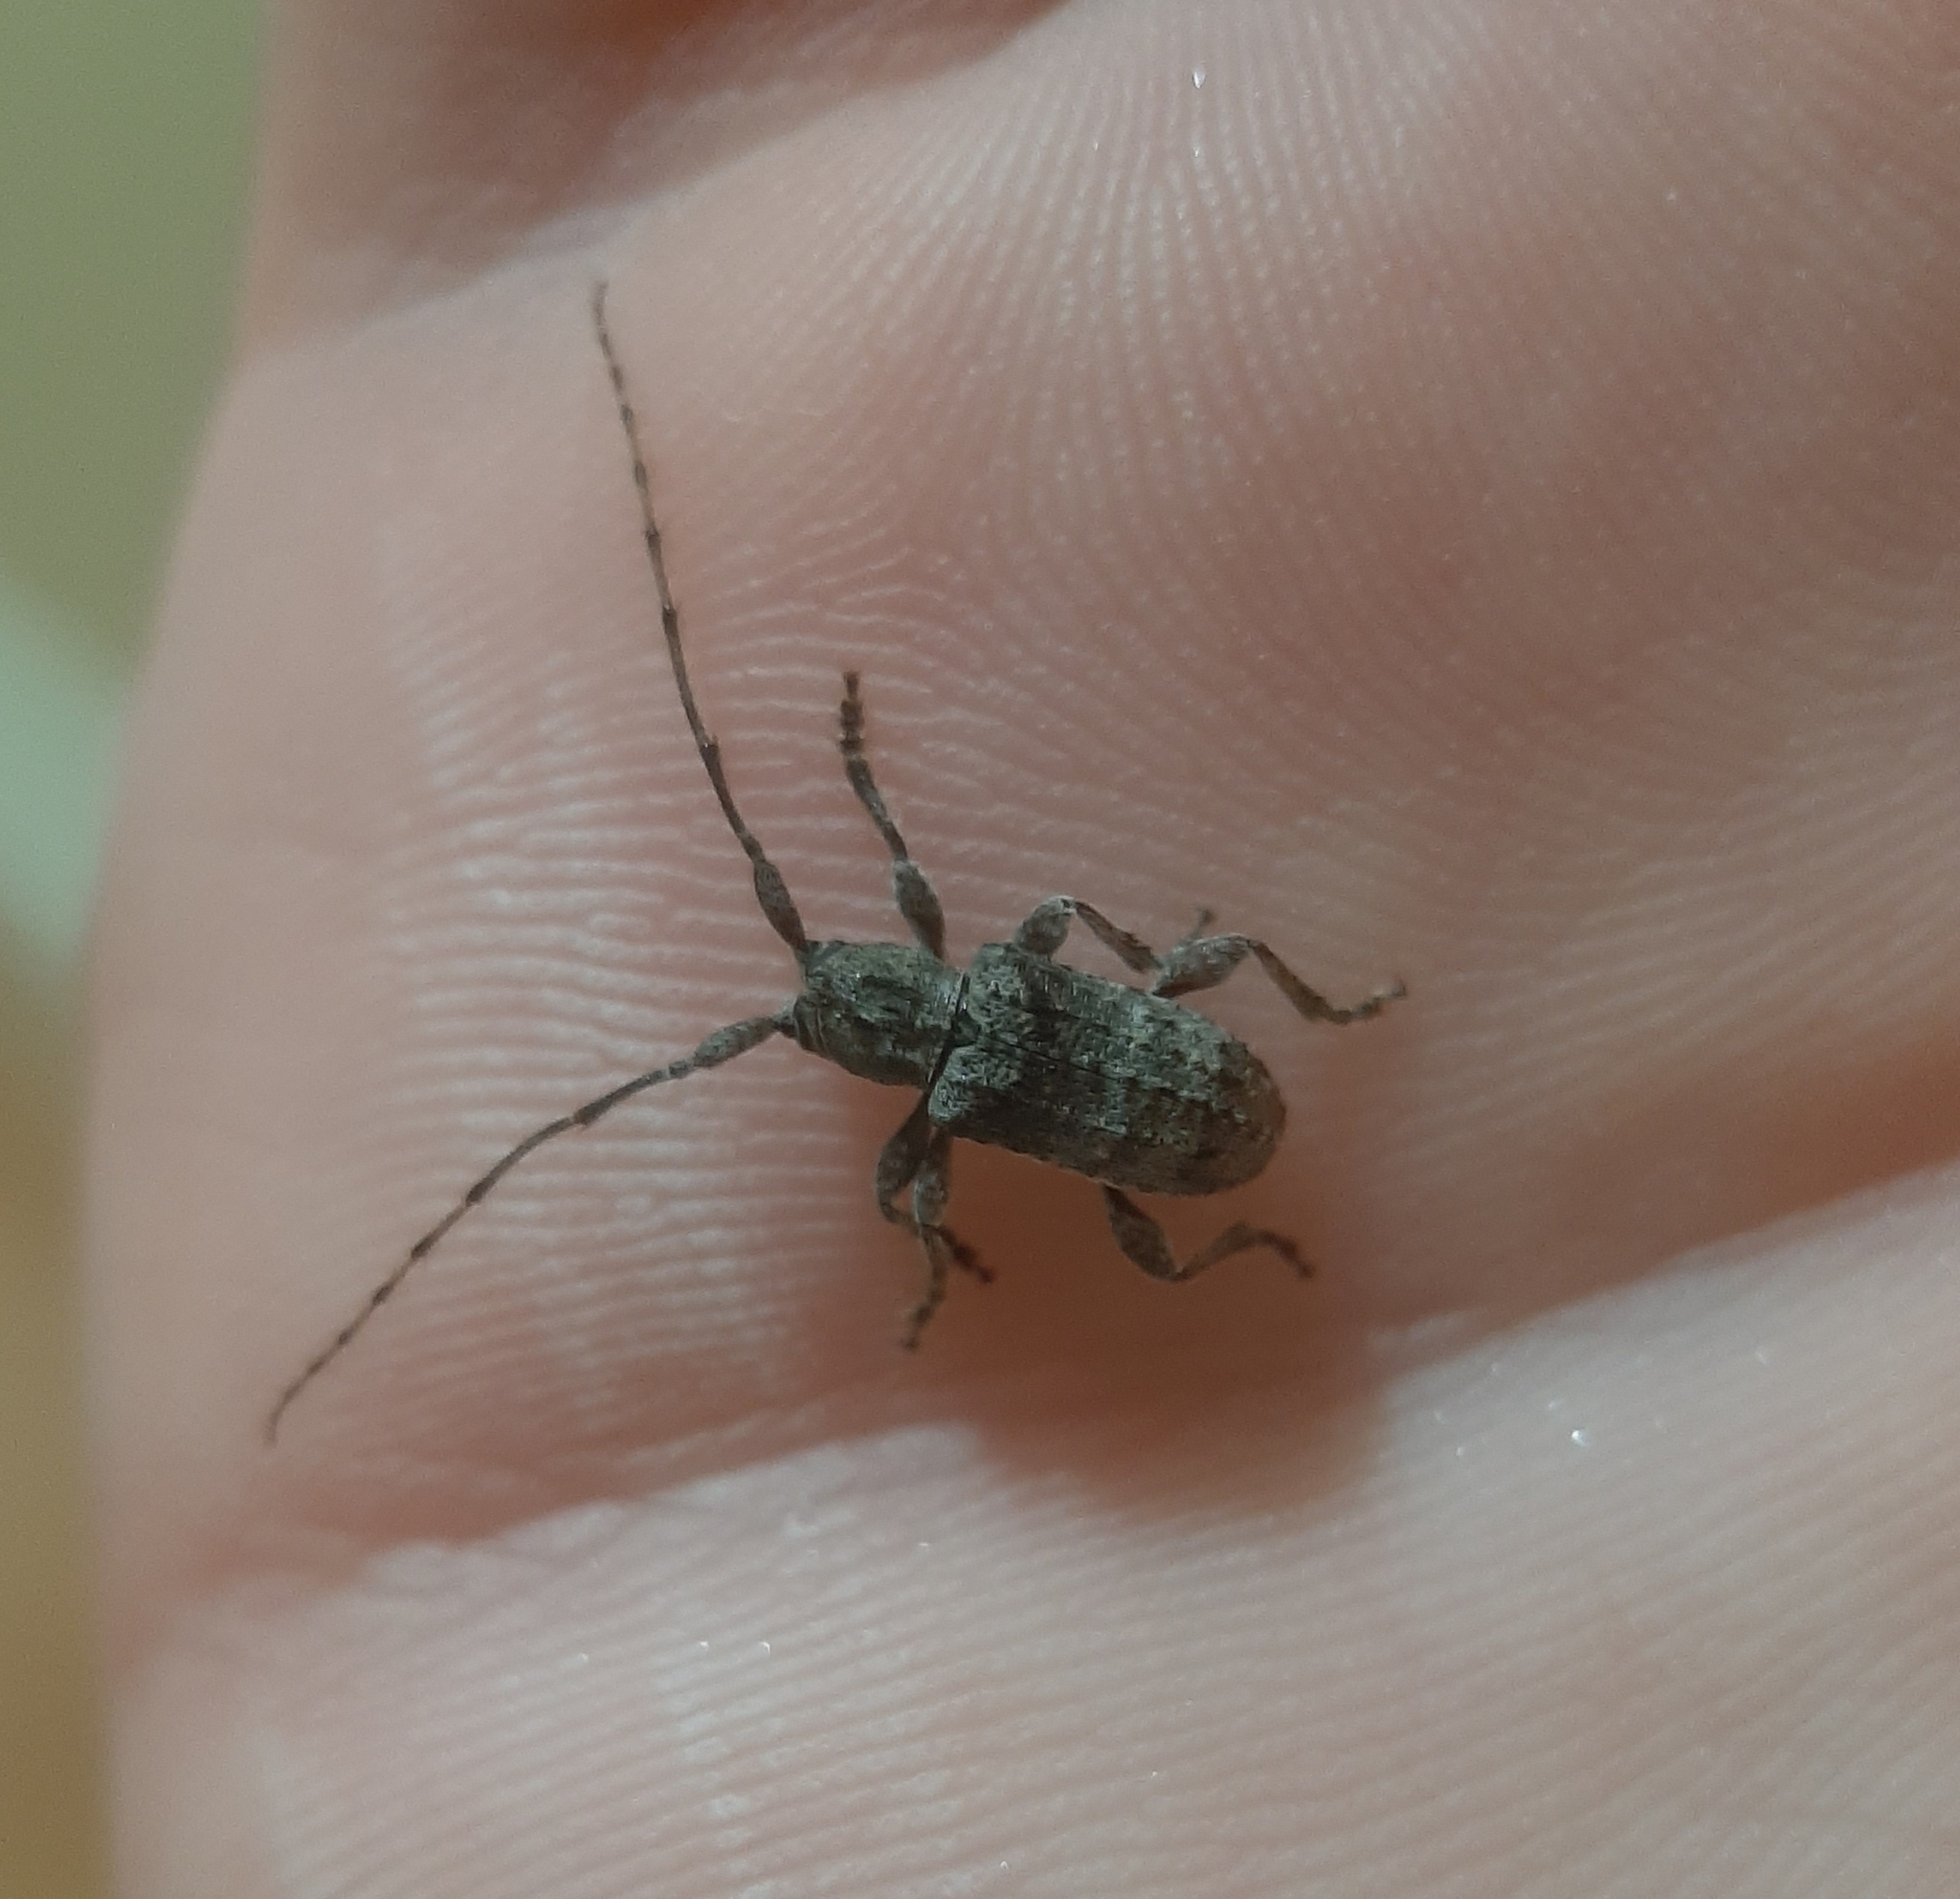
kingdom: Animalia
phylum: Arthropoda
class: Insecta
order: Coleoptera
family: Cerambycidae
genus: Ecyrus
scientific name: Ecyrus dasycerus
